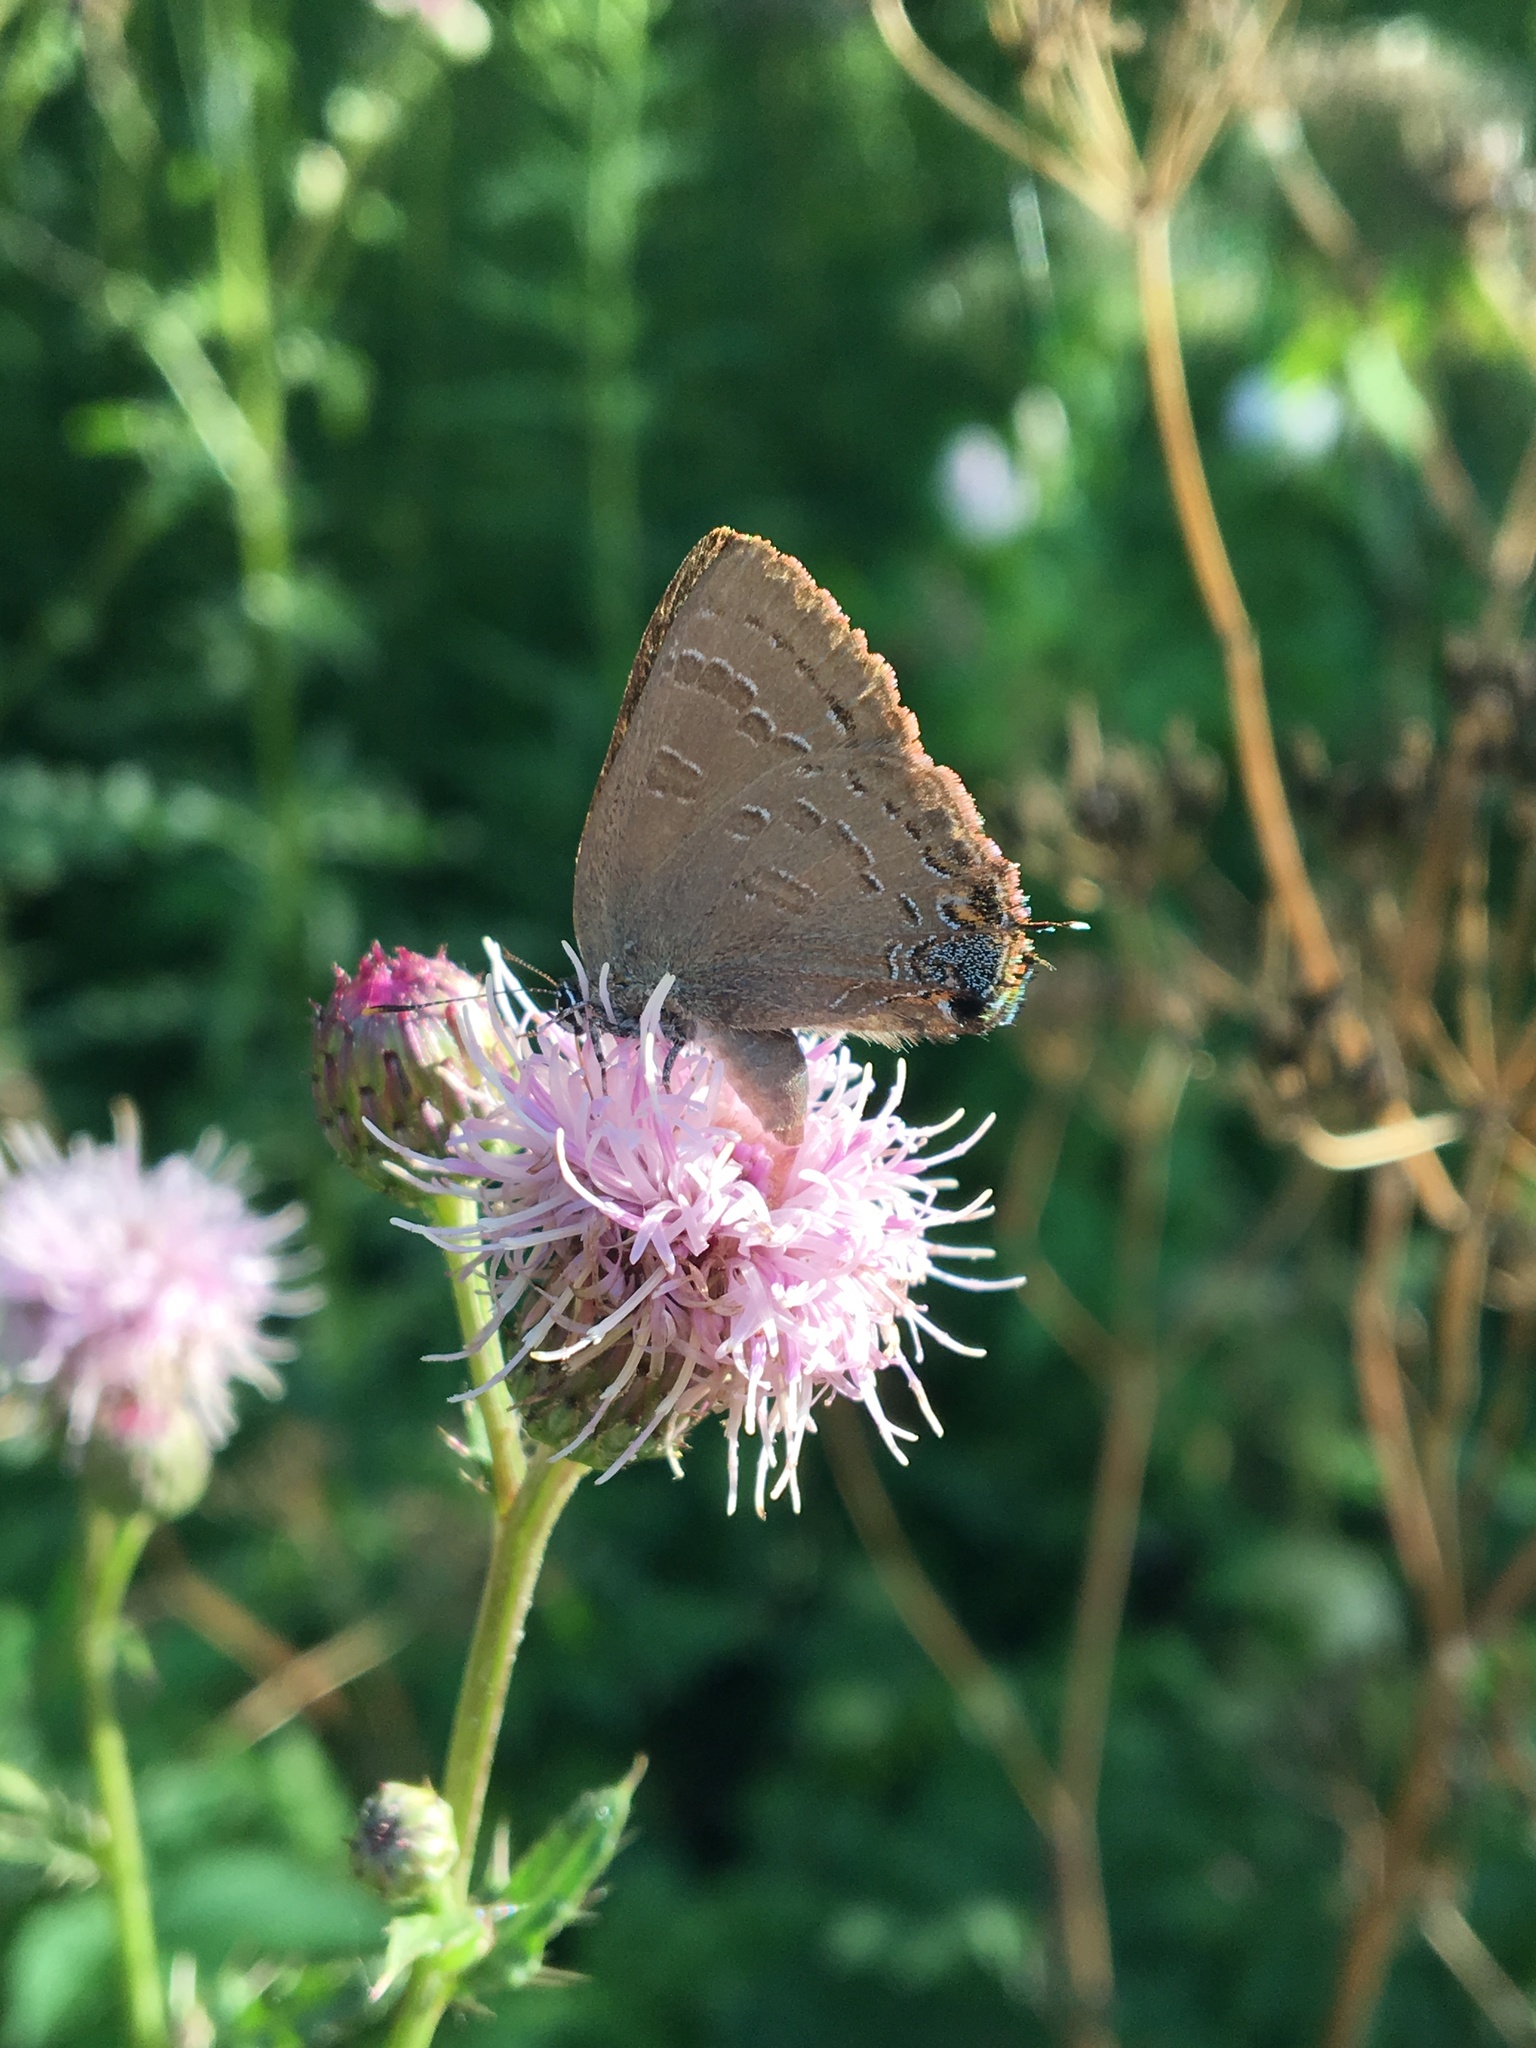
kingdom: Animalia
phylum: Arthropoda
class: Insecta
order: Lepidoptera
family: Lycaenidae
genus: Satyrium
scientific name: Satyrium calanus
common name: Banded hairstreak
